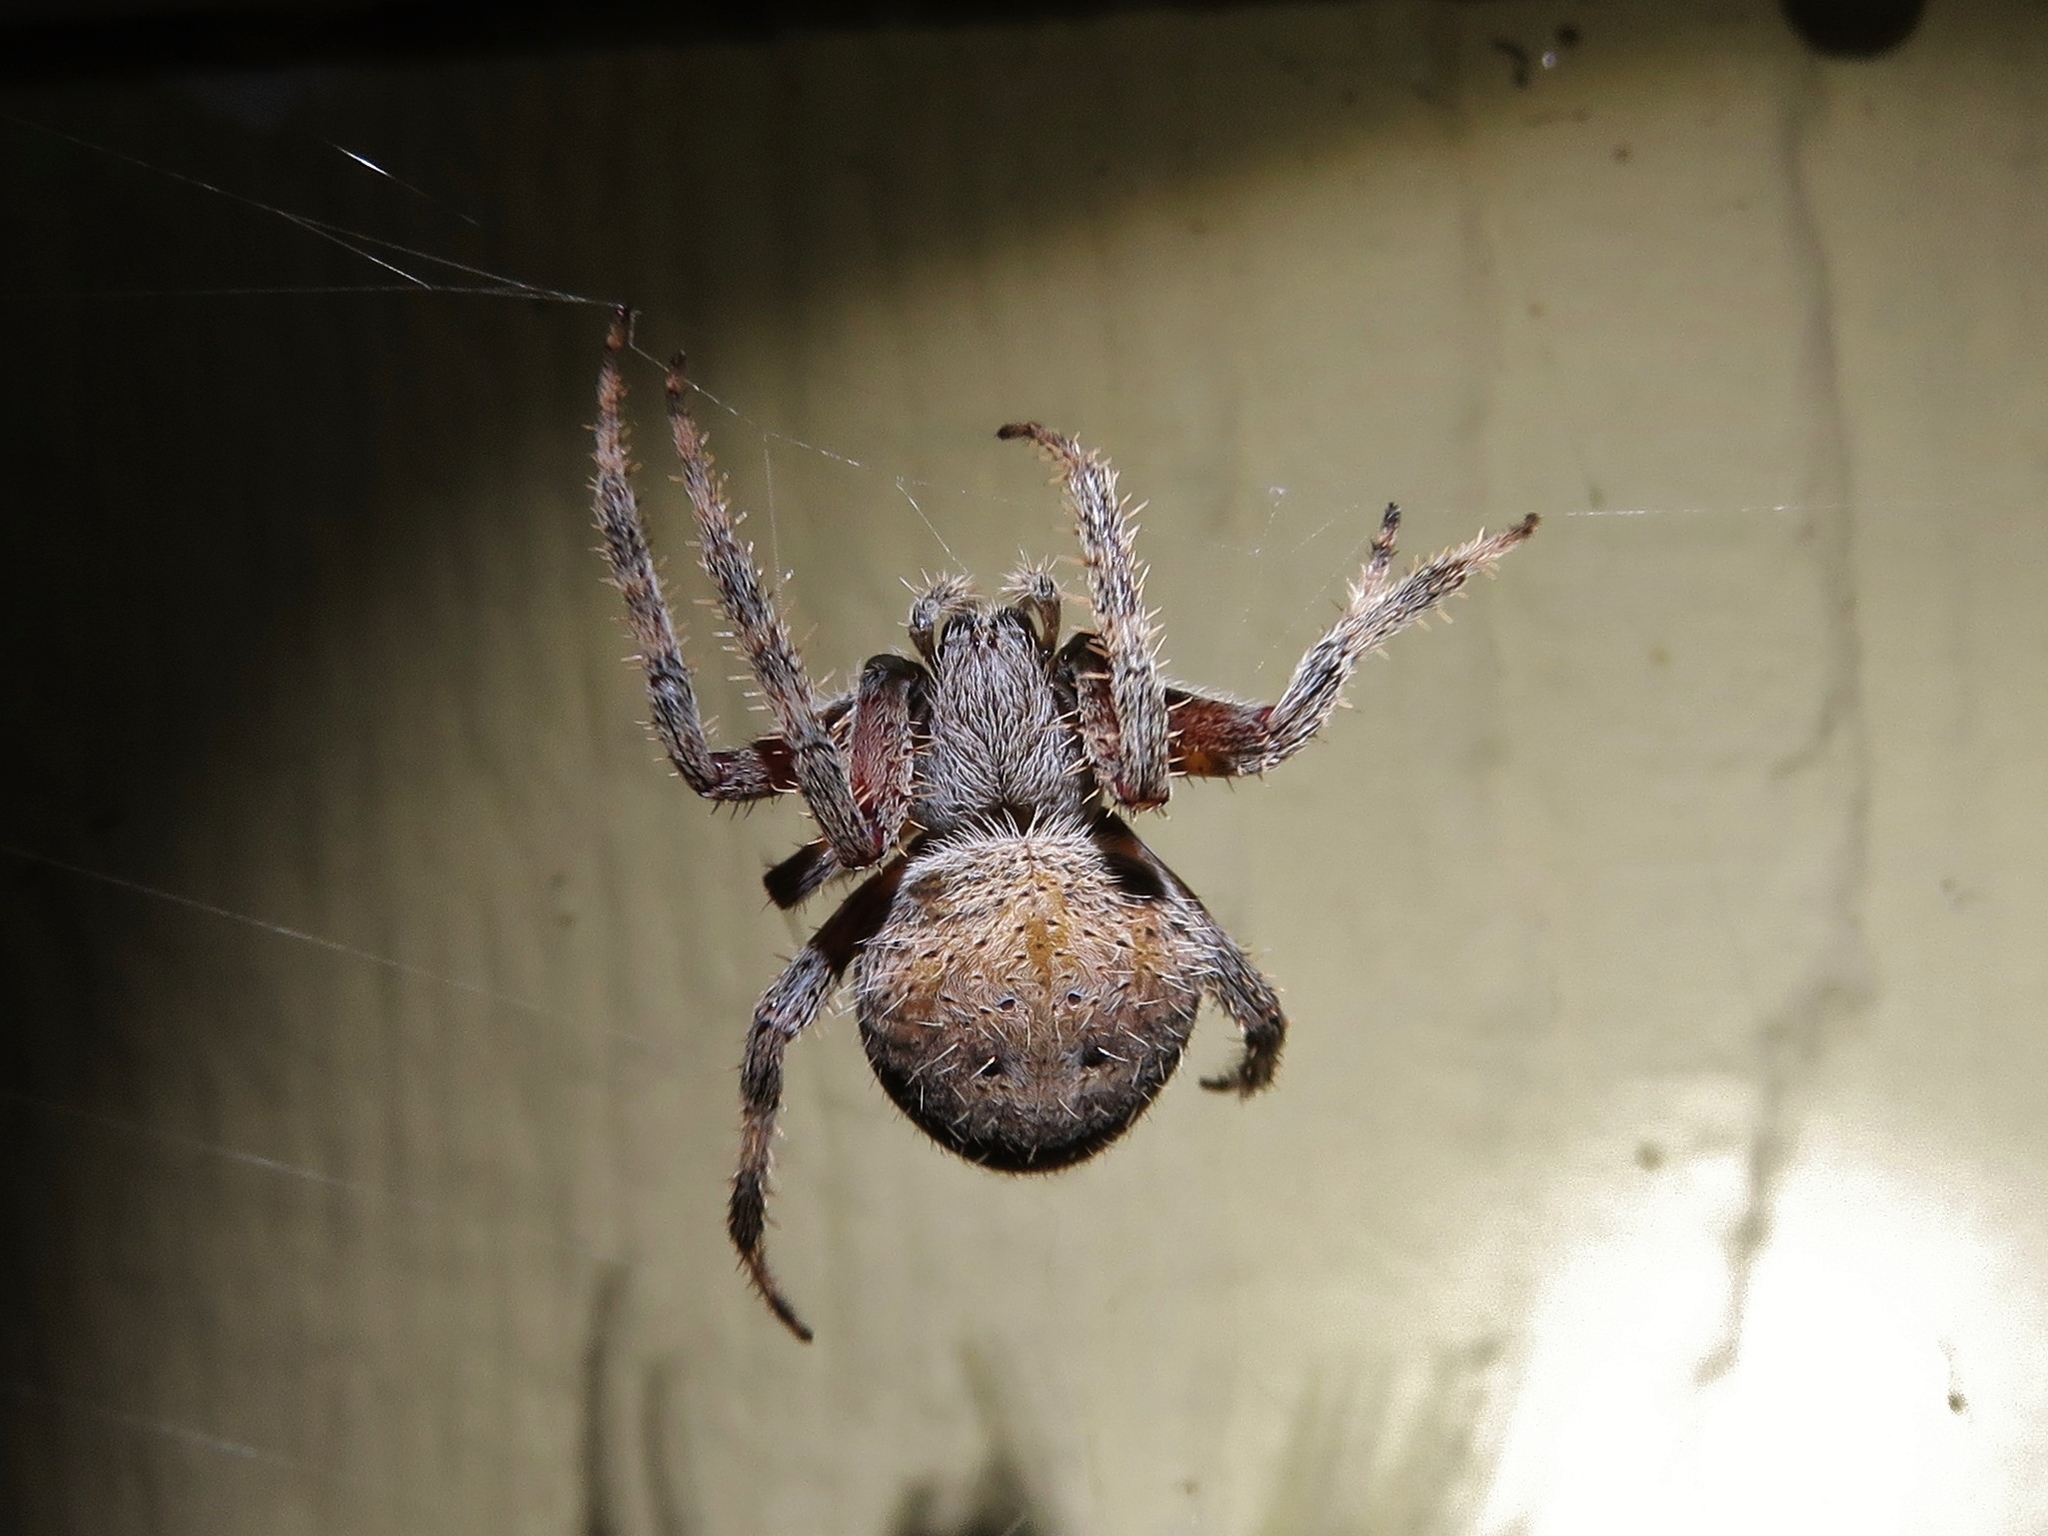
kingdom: Animalia
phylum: Arthropoda
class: Arachnida
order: Araneae
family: Araneidae
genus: Neoscona
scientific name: Neoscona crucifera
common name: Spotted orbweaver
